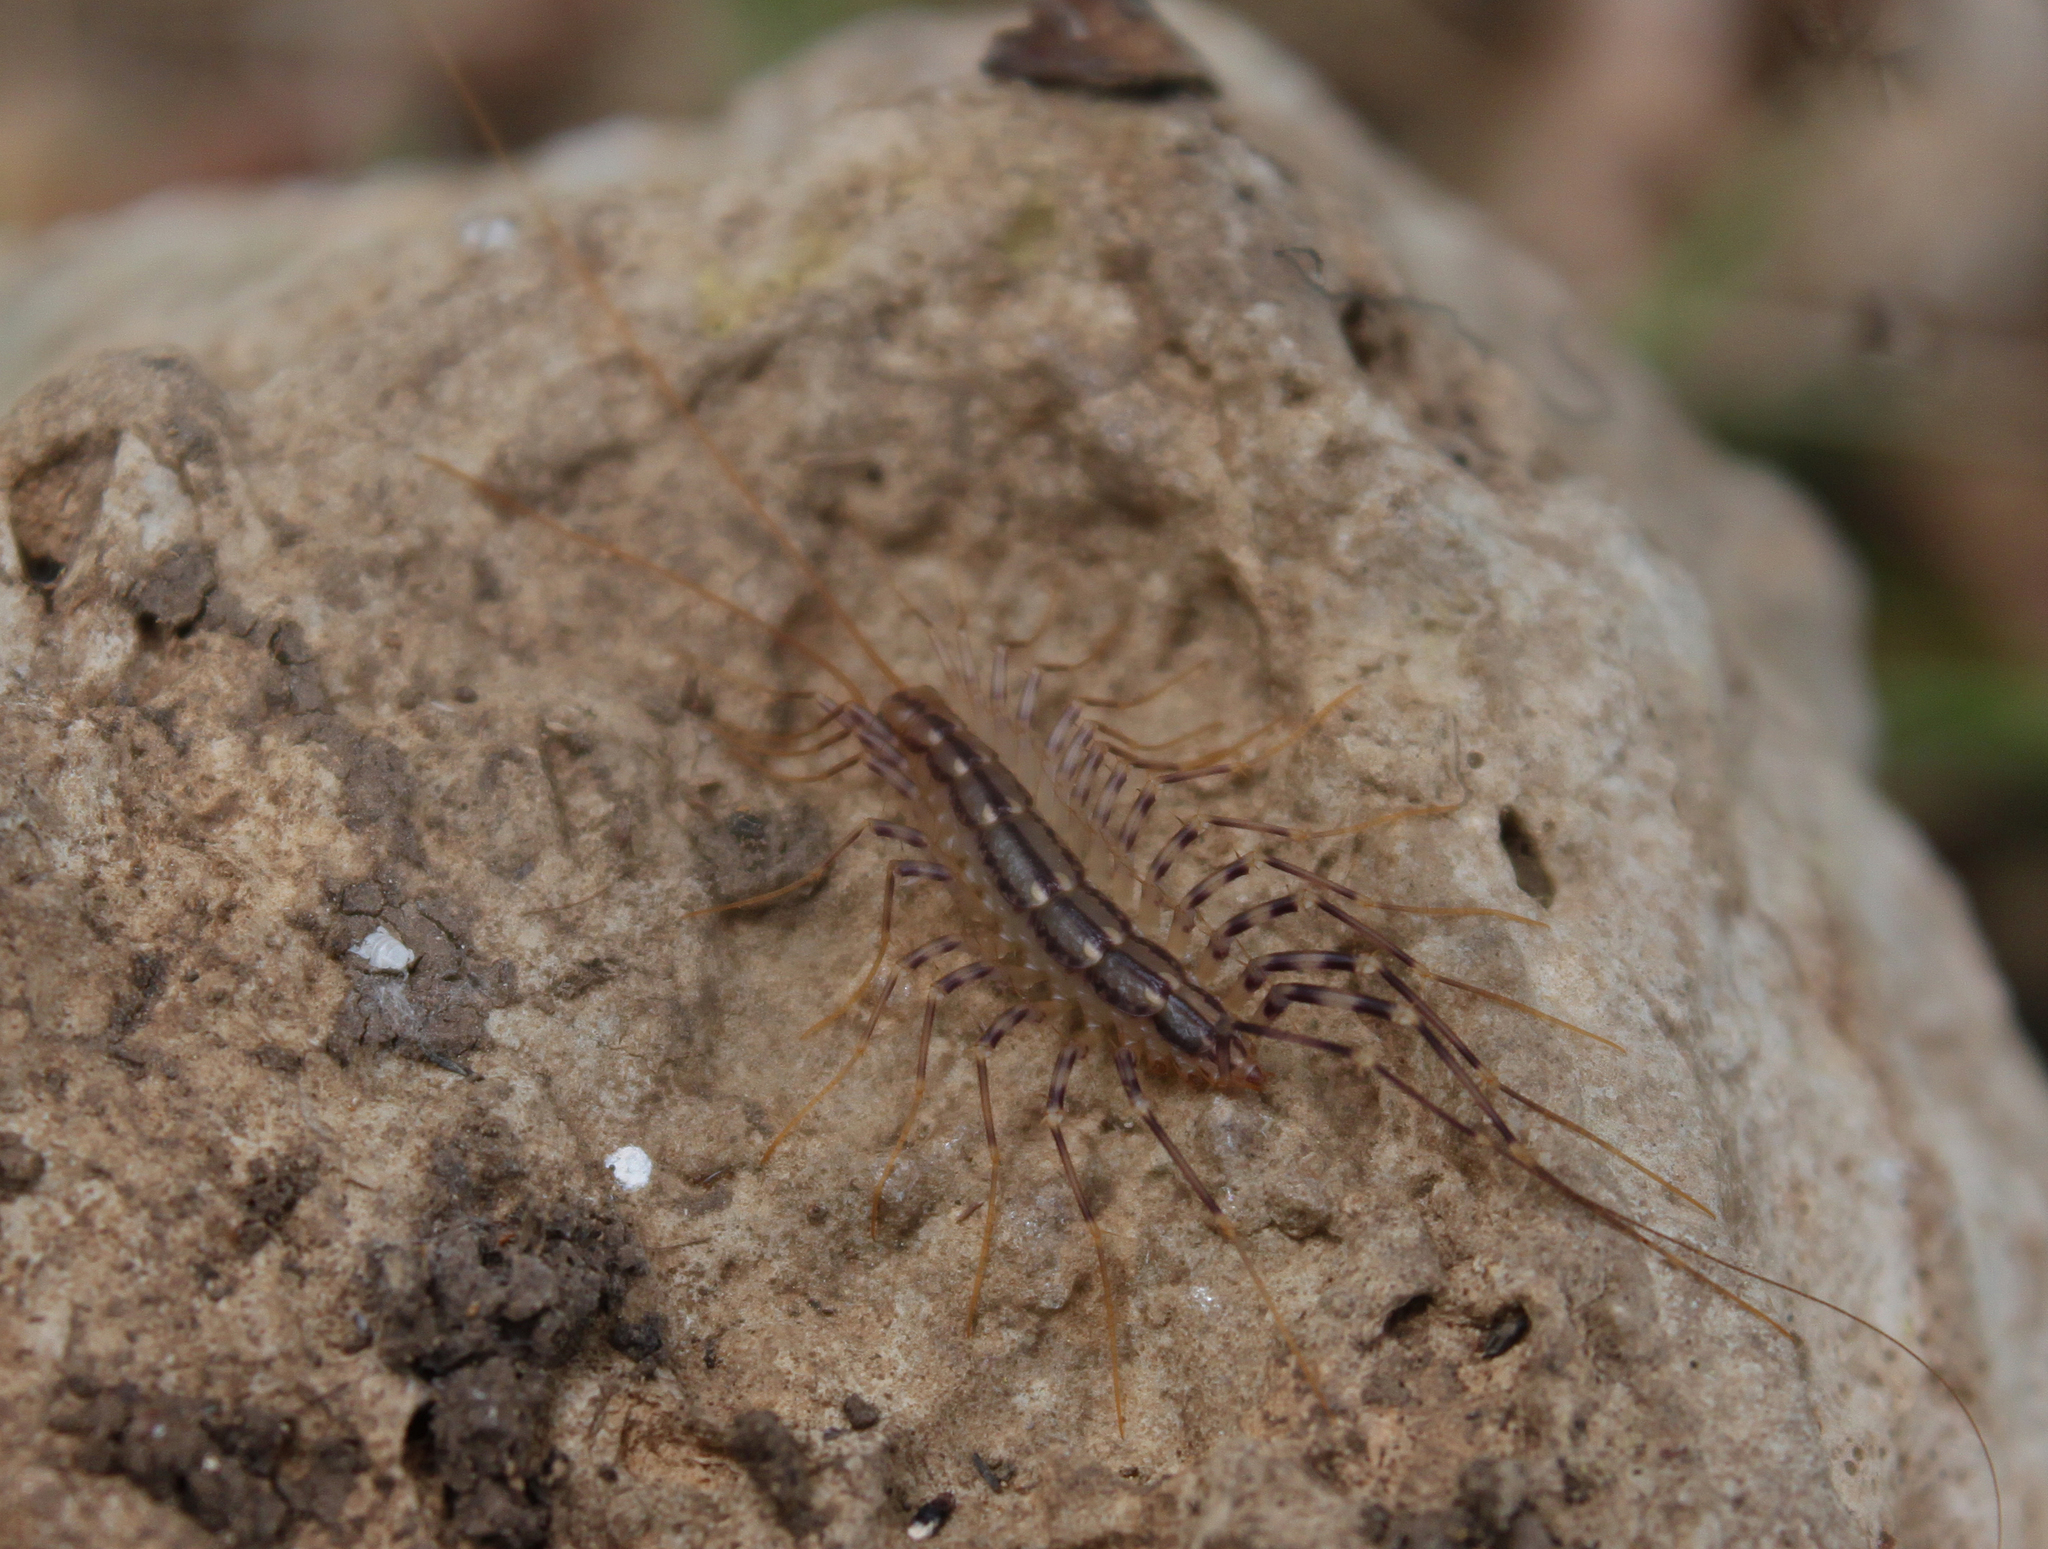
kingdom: Animalia
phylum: Arthropoda
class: Chilopoda
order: Scutigeromorpha
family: Scutigeridae
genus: Scutigera
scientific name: Scutigera coleoptrata
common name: House centipede
